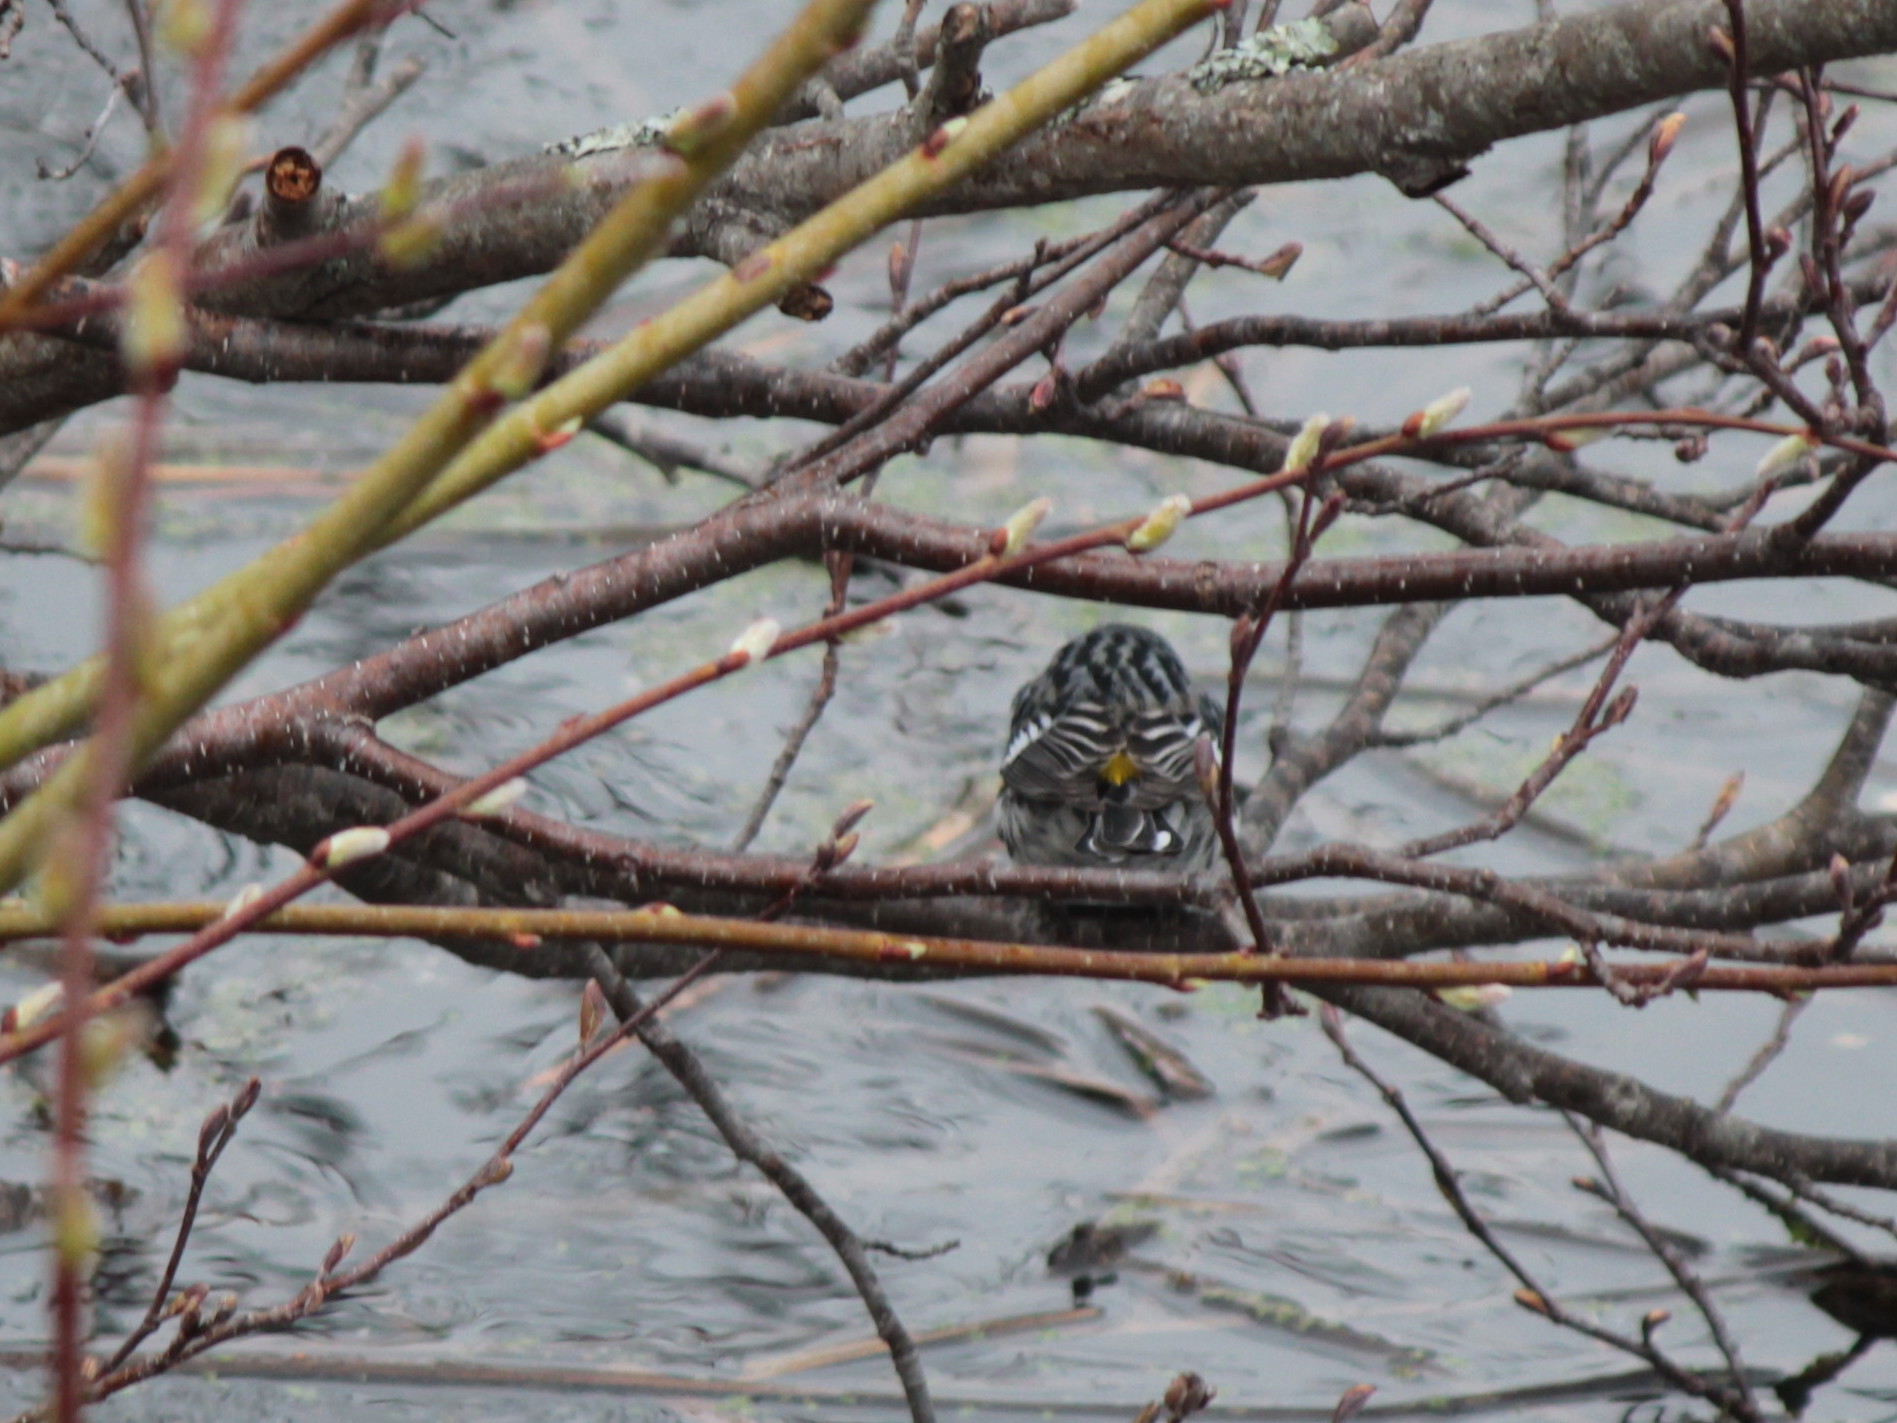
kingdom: Animalia
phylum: Chordata
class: Aves
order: Passeriformes
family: Parulidae
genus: Setophaga
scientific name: Setophaga coronata
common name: Myrtle warbler
